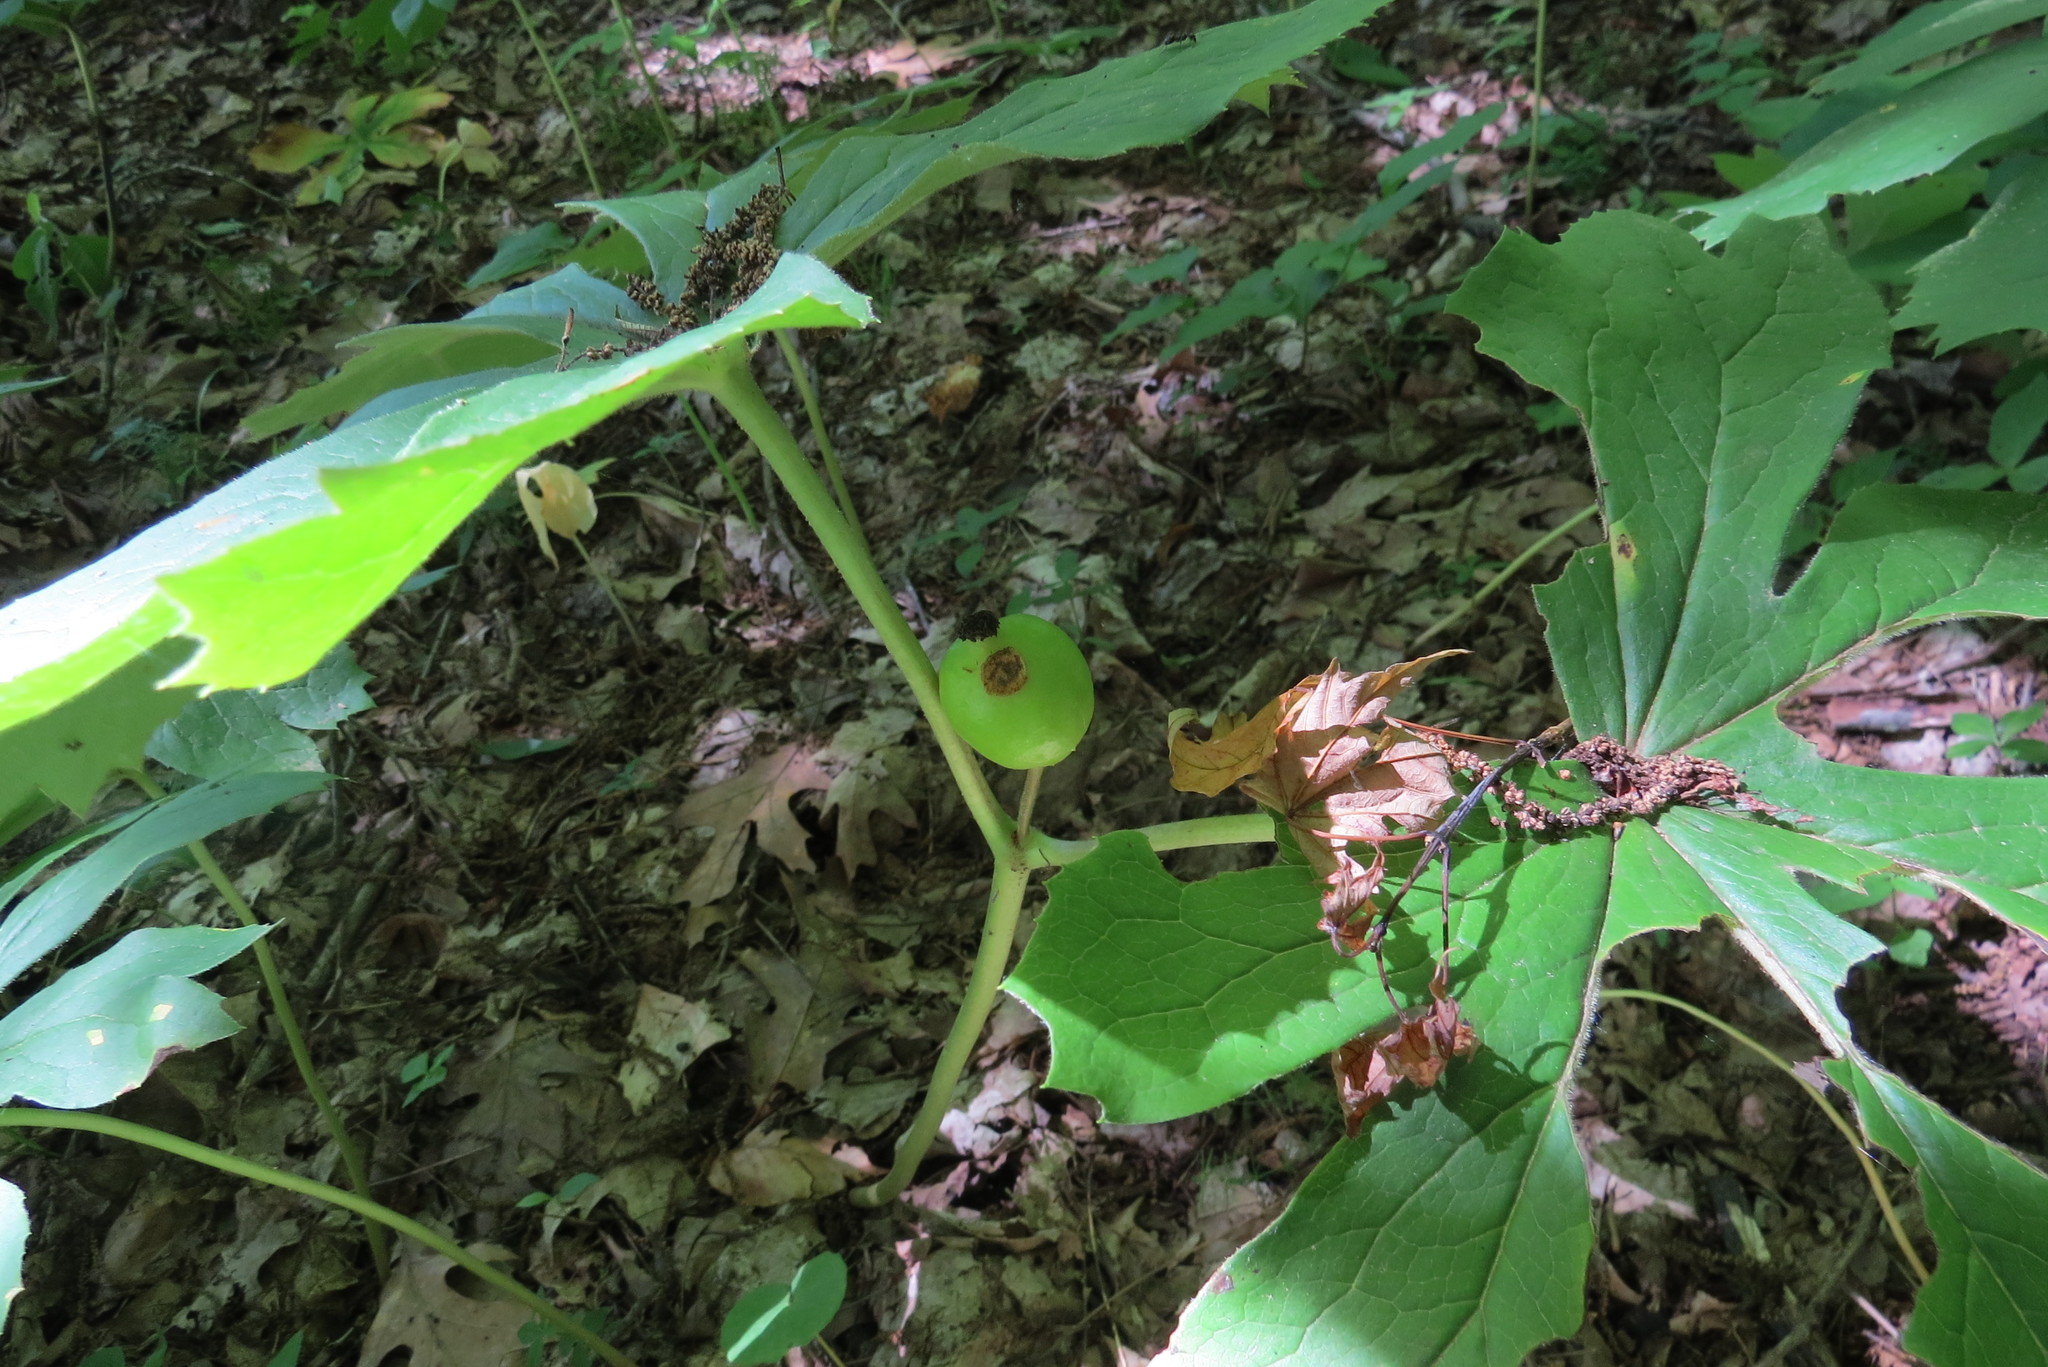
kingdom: Plantae
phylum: Tracheophyta
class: Magnoliopsida
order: Ranunculales
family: Berberidaceae
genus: Podophyllum
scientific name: Podophyllum peltatum
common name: Wild mandrake
